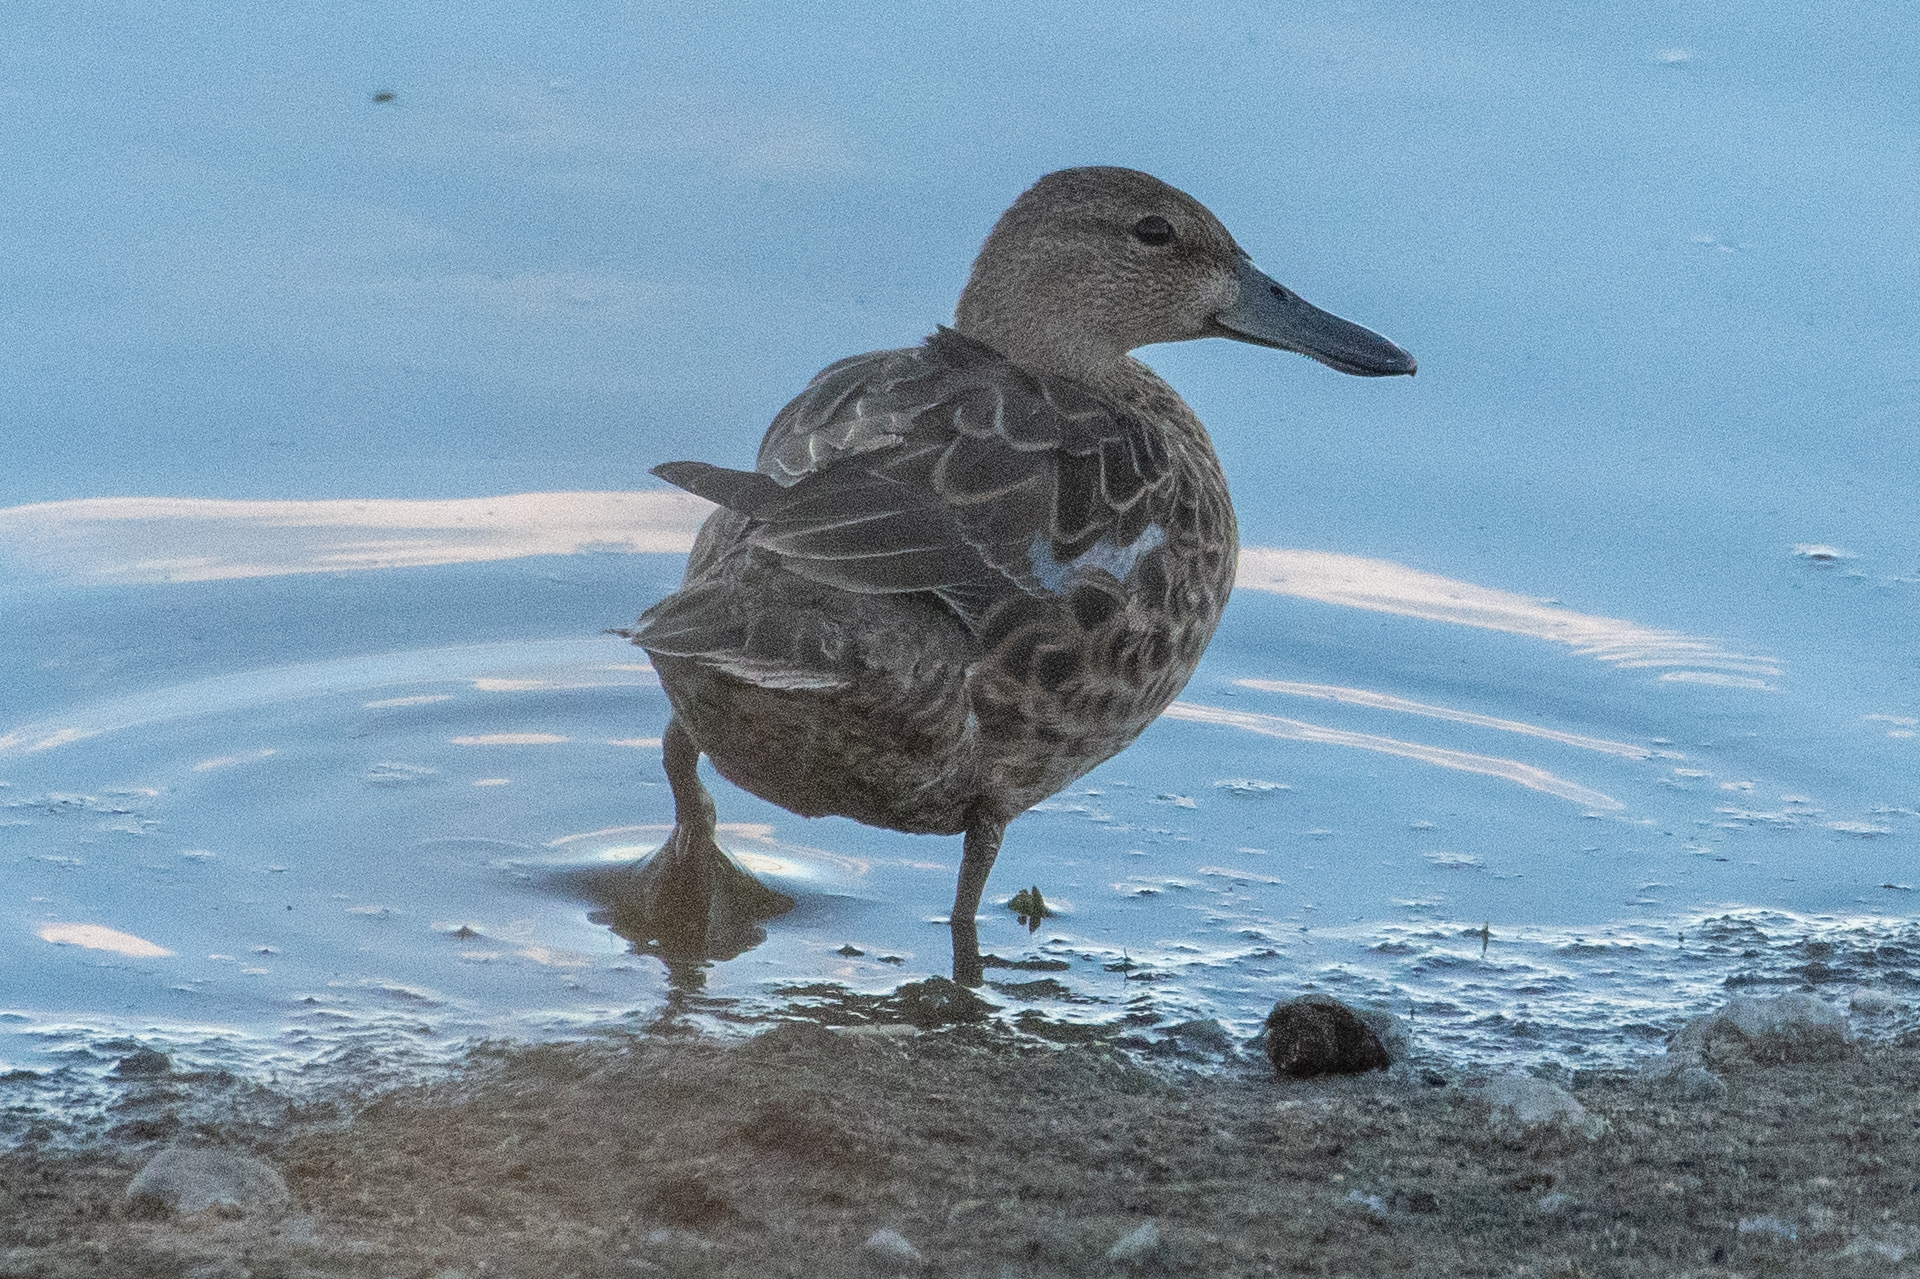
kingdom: Animalia
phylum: Chordata
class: Aves
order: Anseriformes
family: Anatidae
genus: Spatula
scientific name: Spatula cyanoptera
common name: Cinnamon teal
